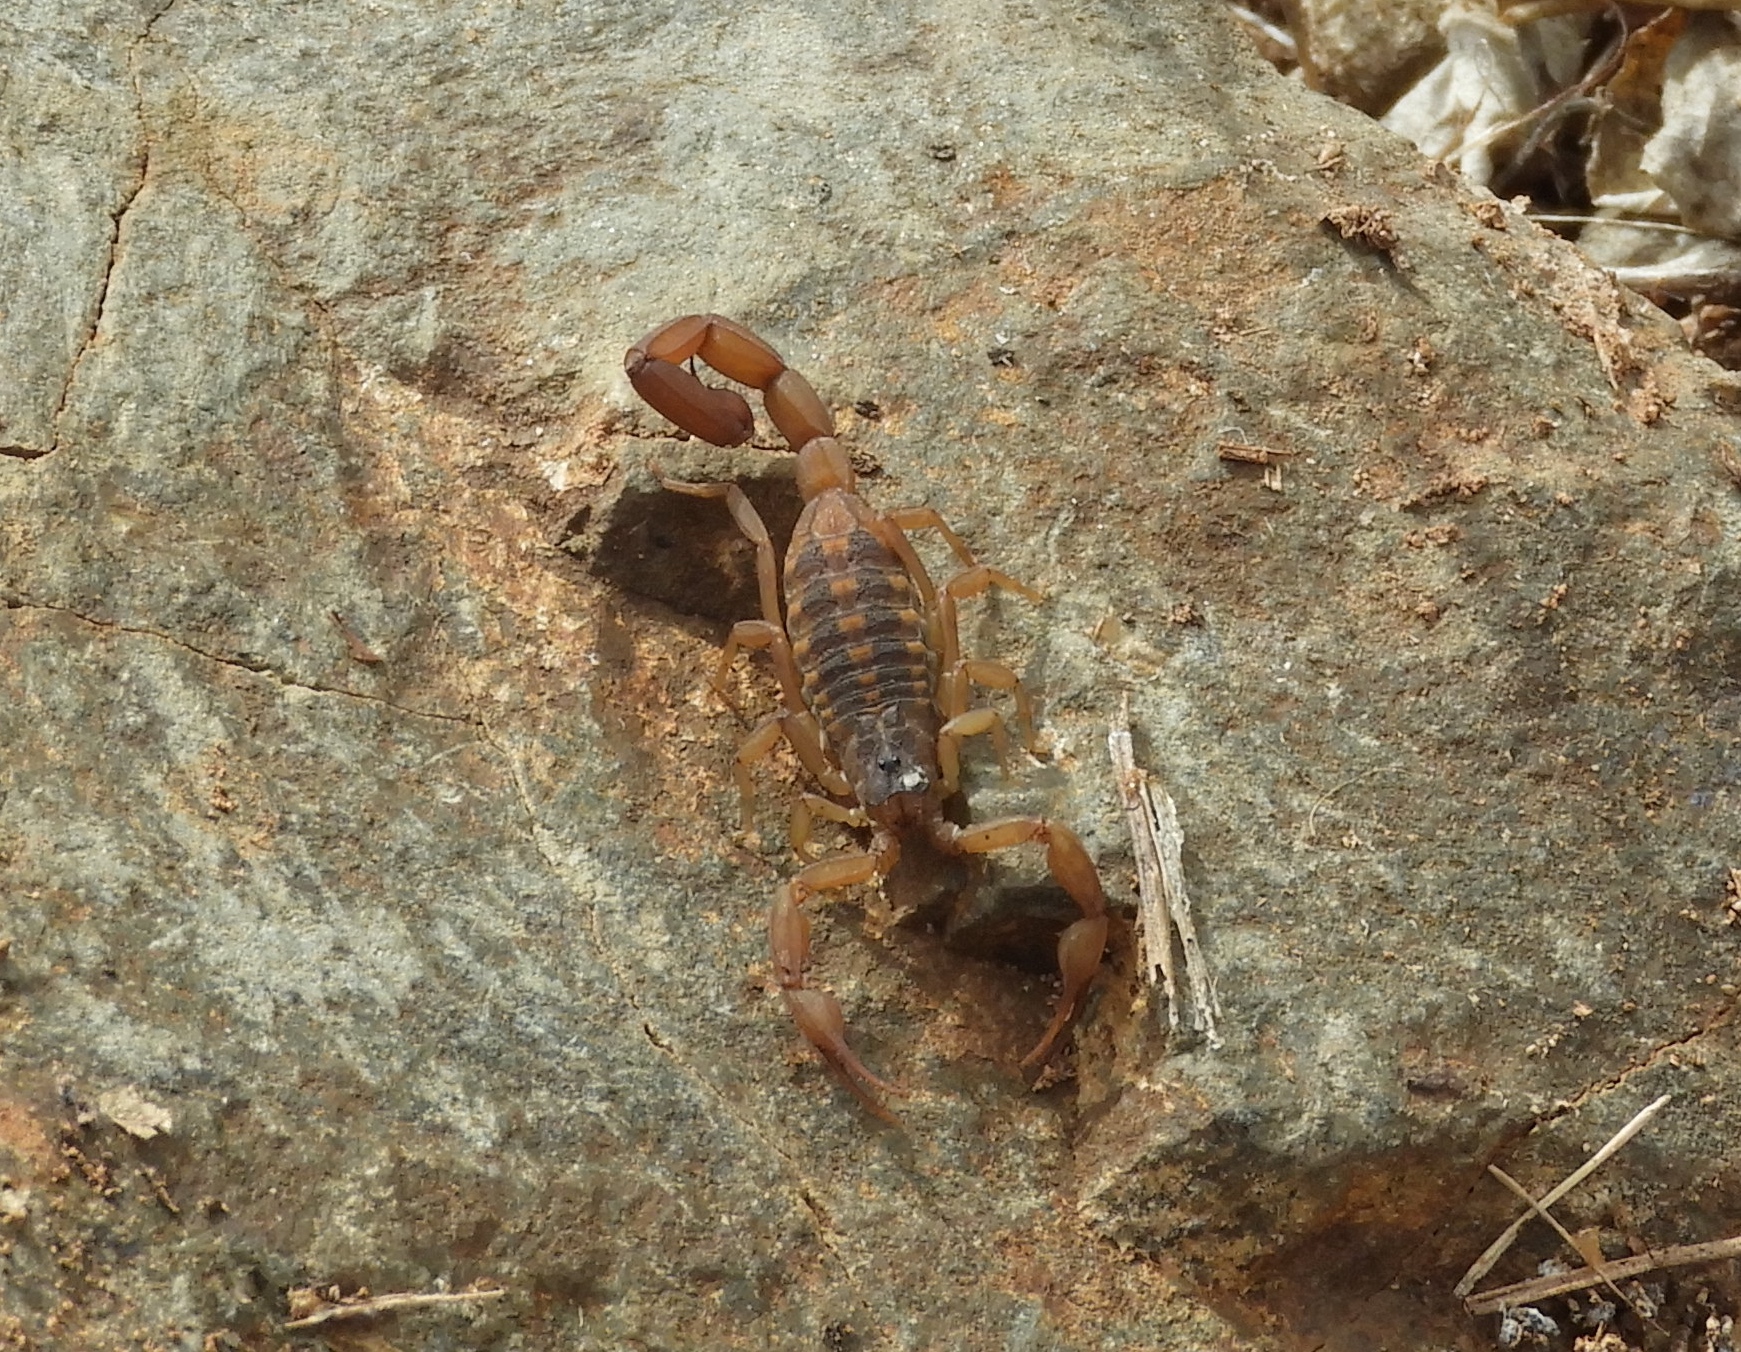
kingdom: Animalia
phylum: Arthropoda
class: Arachnida
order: Scorpiones
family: Buthidae
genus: Centruroides
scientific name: Centruroides
